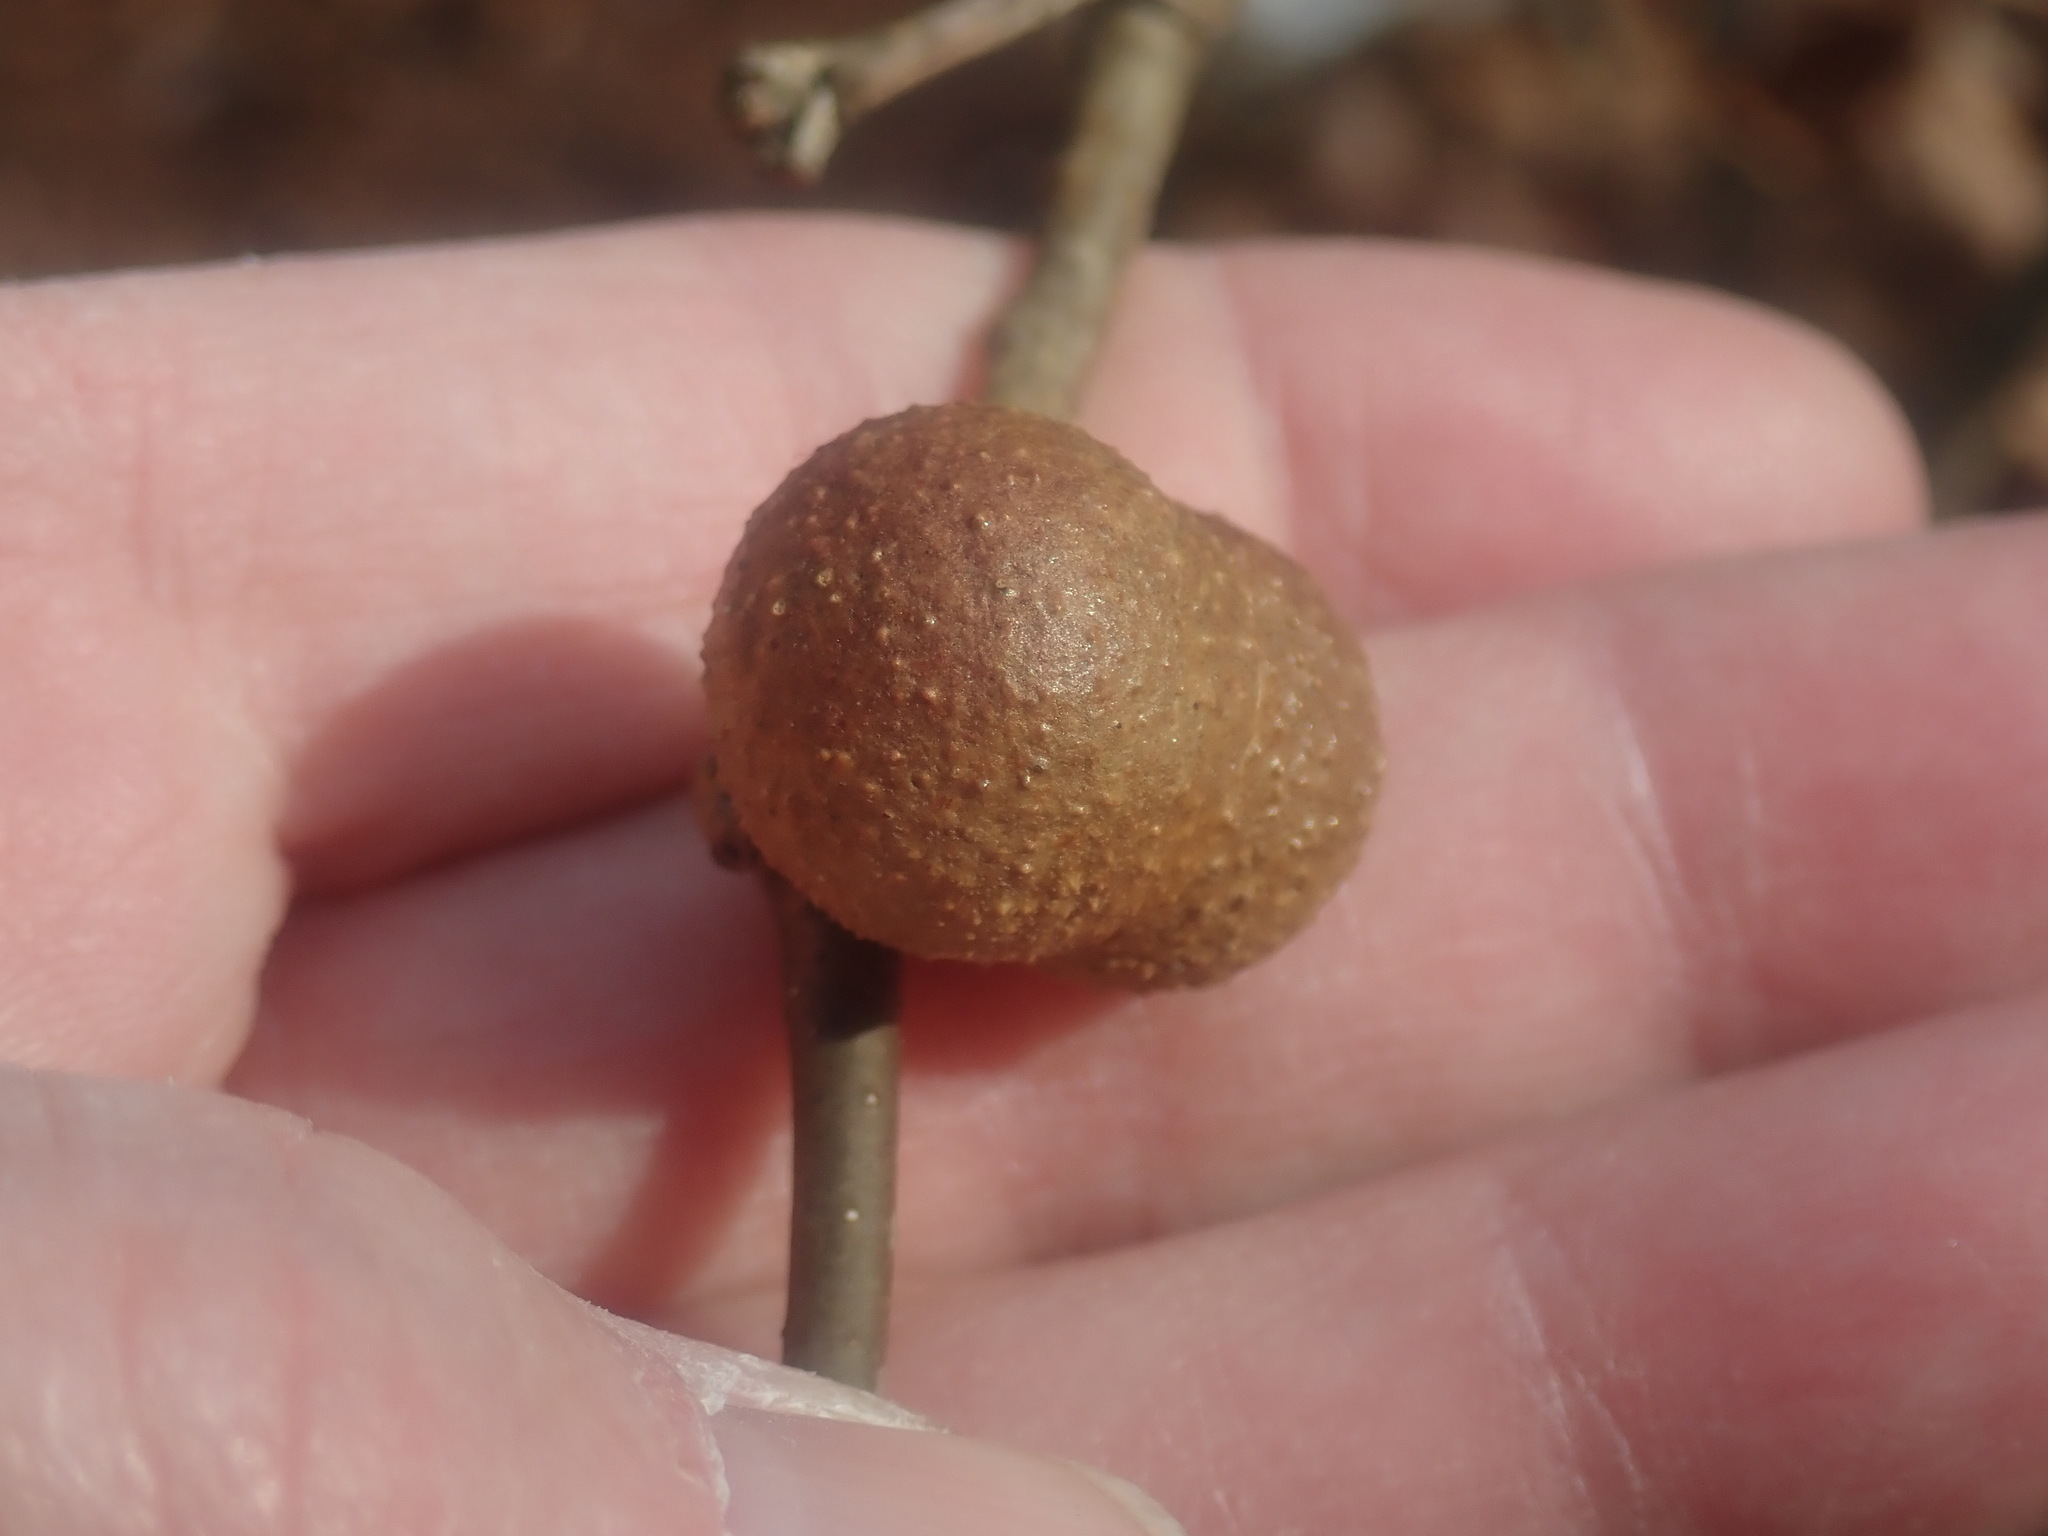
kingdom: Animalia
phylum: Arthropoda
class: Insecta
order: Hymenoptera
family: Cynipidae
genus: Disholcaspis
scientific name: Disholcaspis quercusglobulus
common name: Round bullet gall wasp
